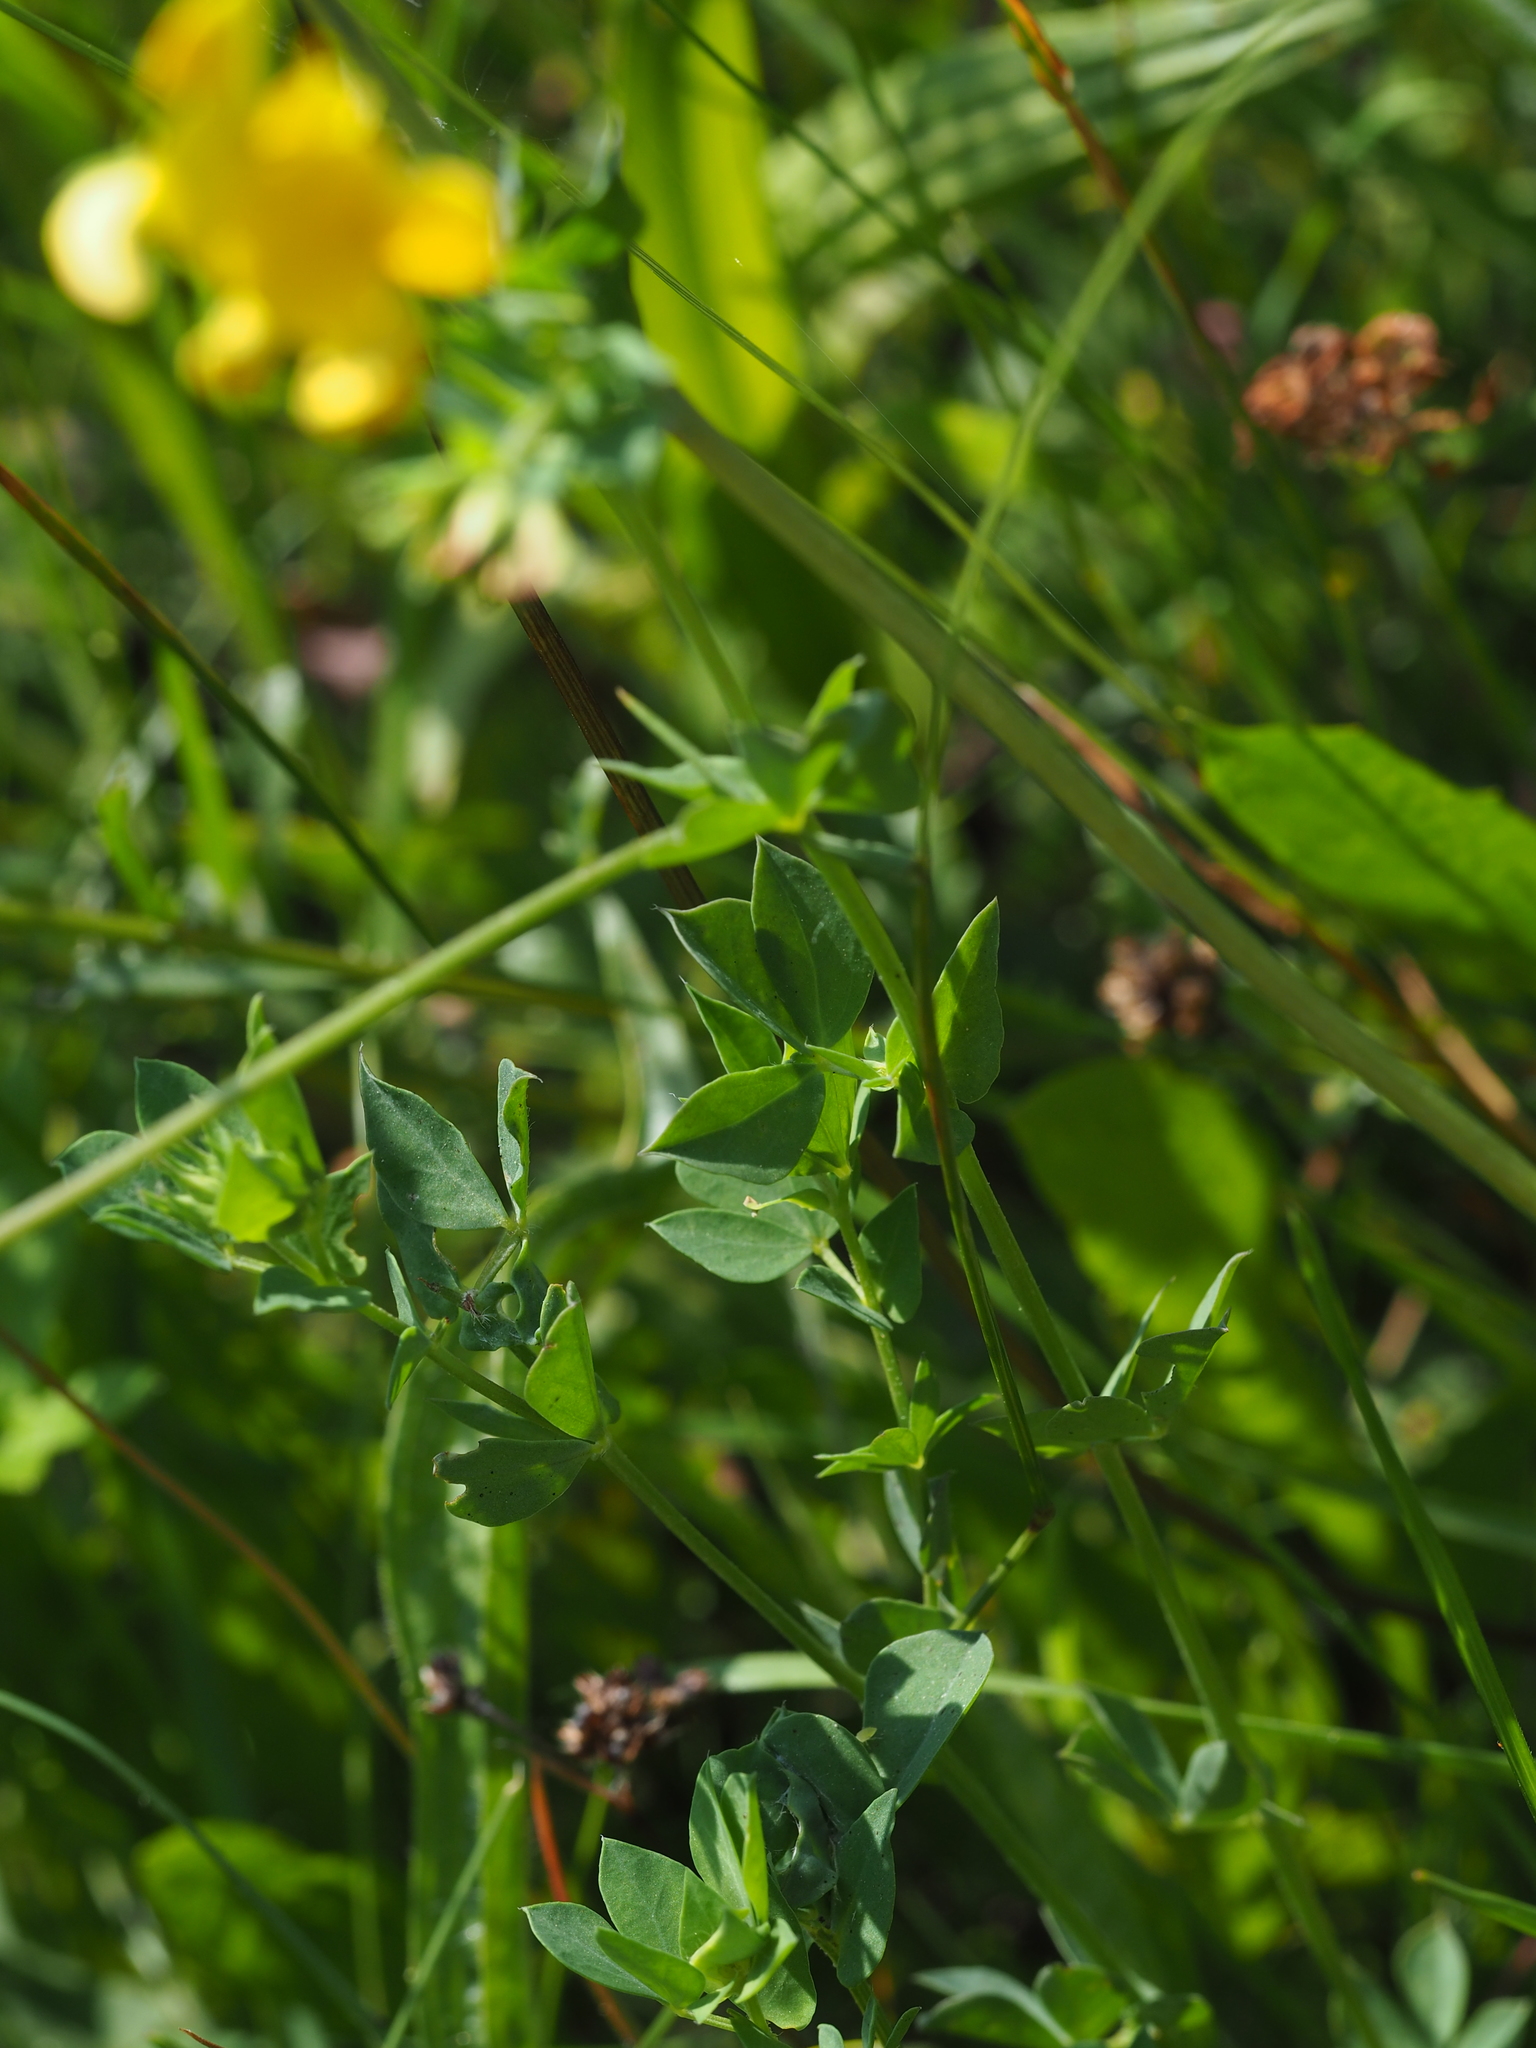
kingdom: Plantae
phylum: Tracheophyta
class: Magnoliopsida
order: Fabales
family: Fabaceae
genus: Lotus
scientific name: Lotus corniculatus
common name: Common bird's-foot-trefoil
